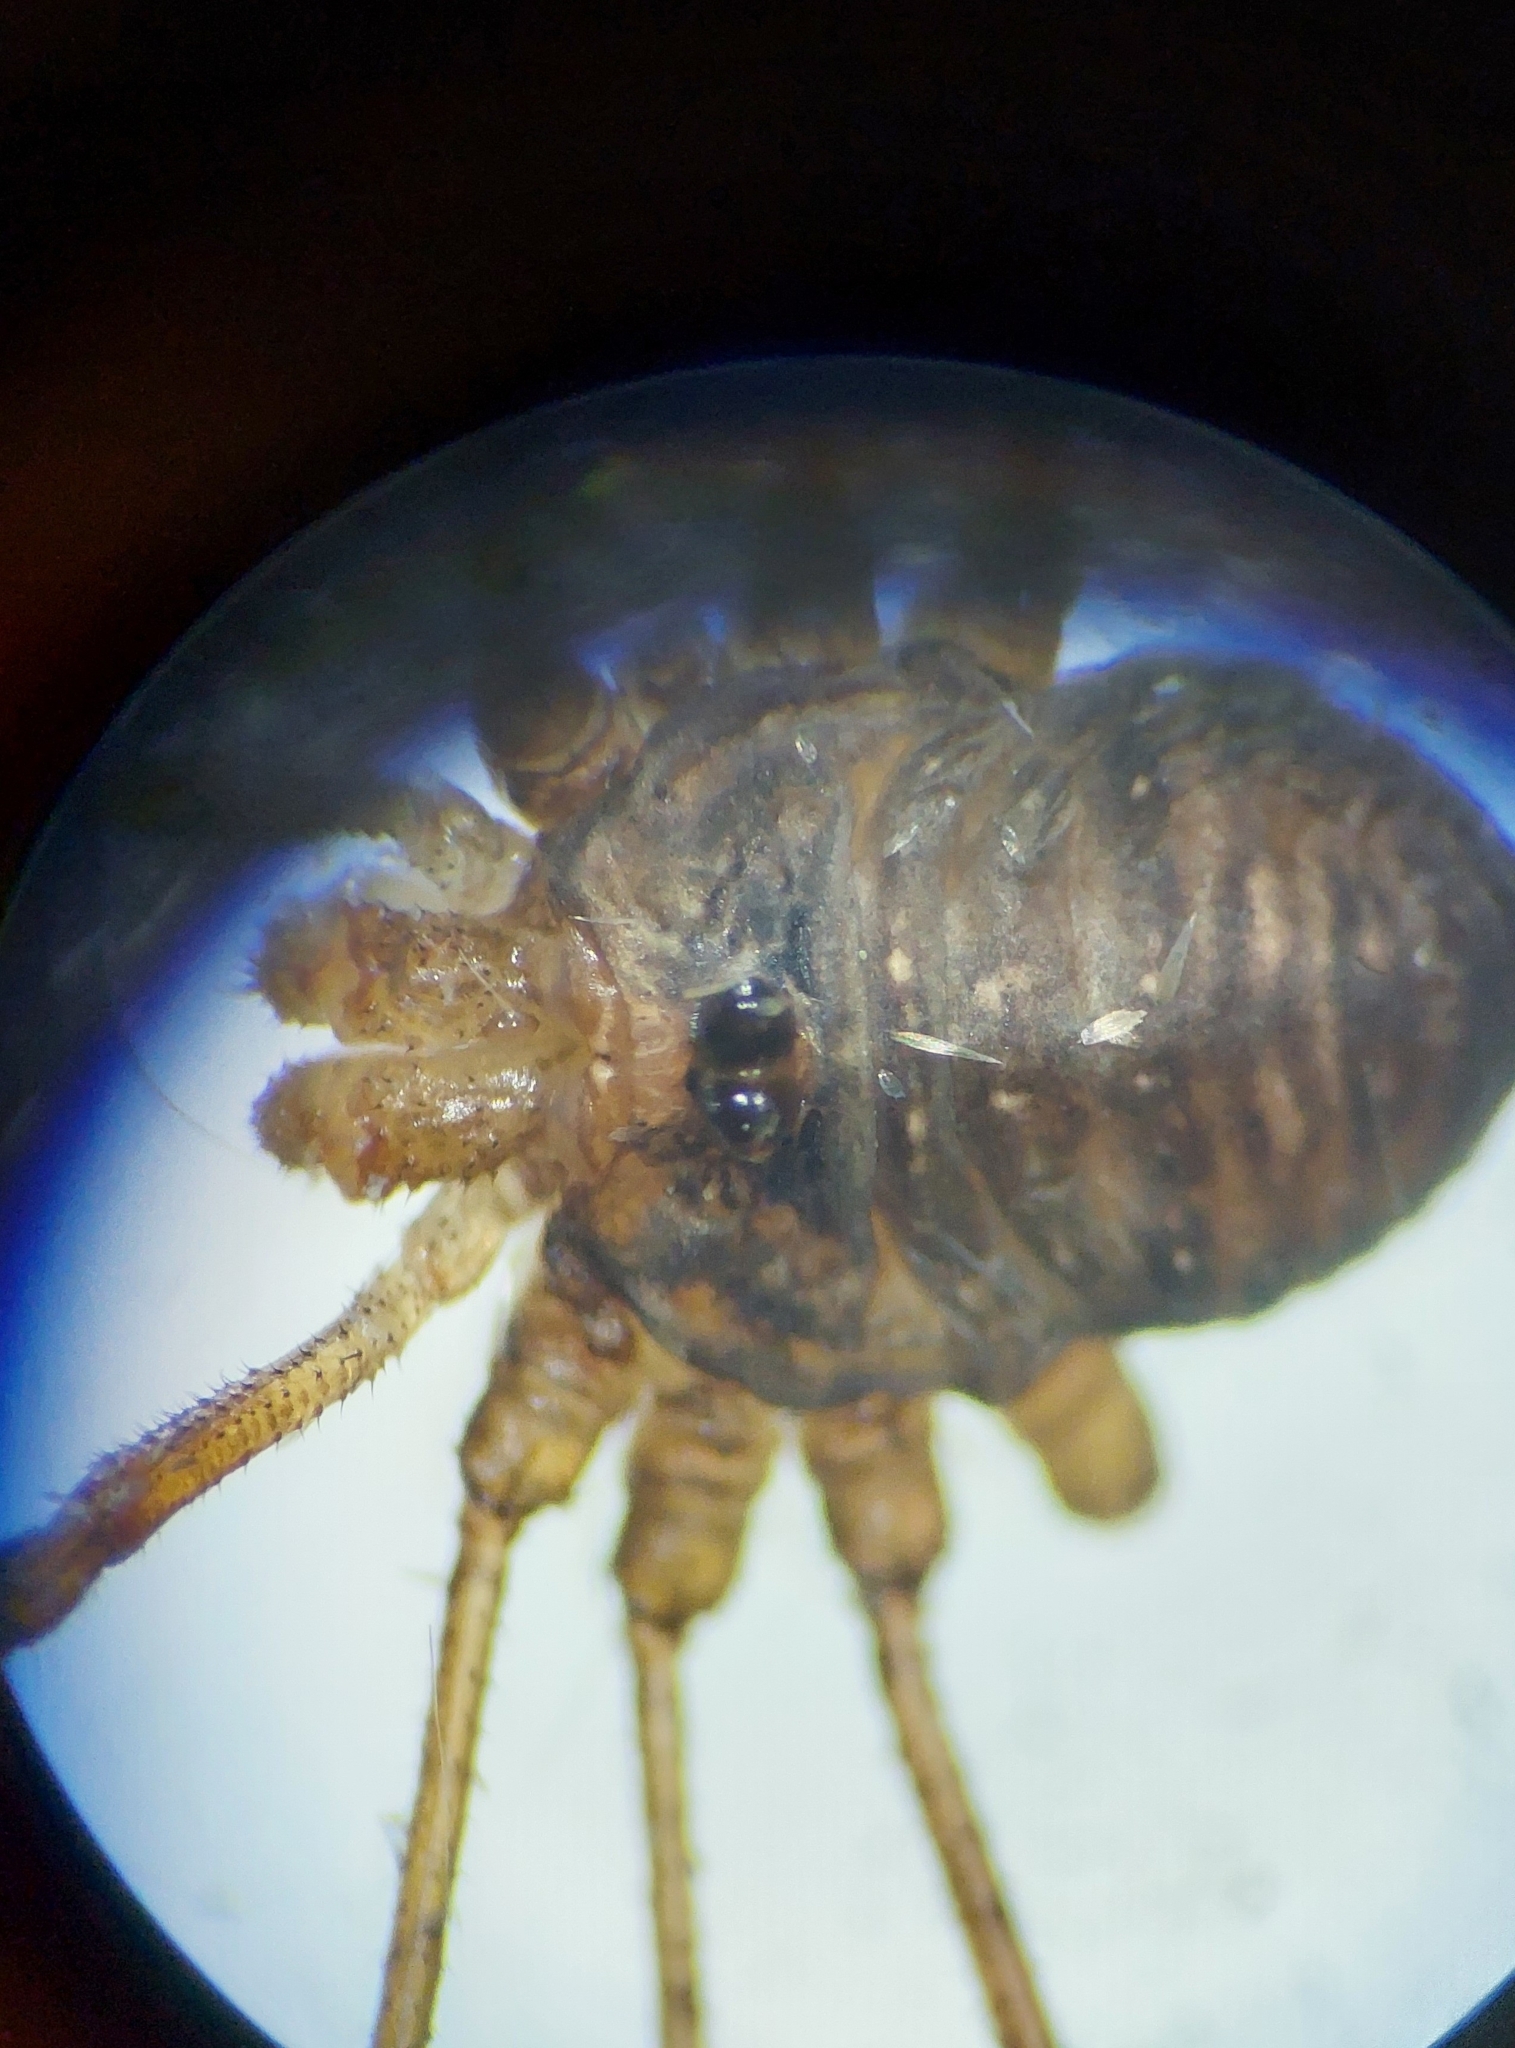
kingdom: Animalia
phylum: Arthropoda
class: Arachnida
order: Opiliones
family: Phalangiidae
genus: Dicranopalpus
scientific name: Dicranopalpus ramosus
